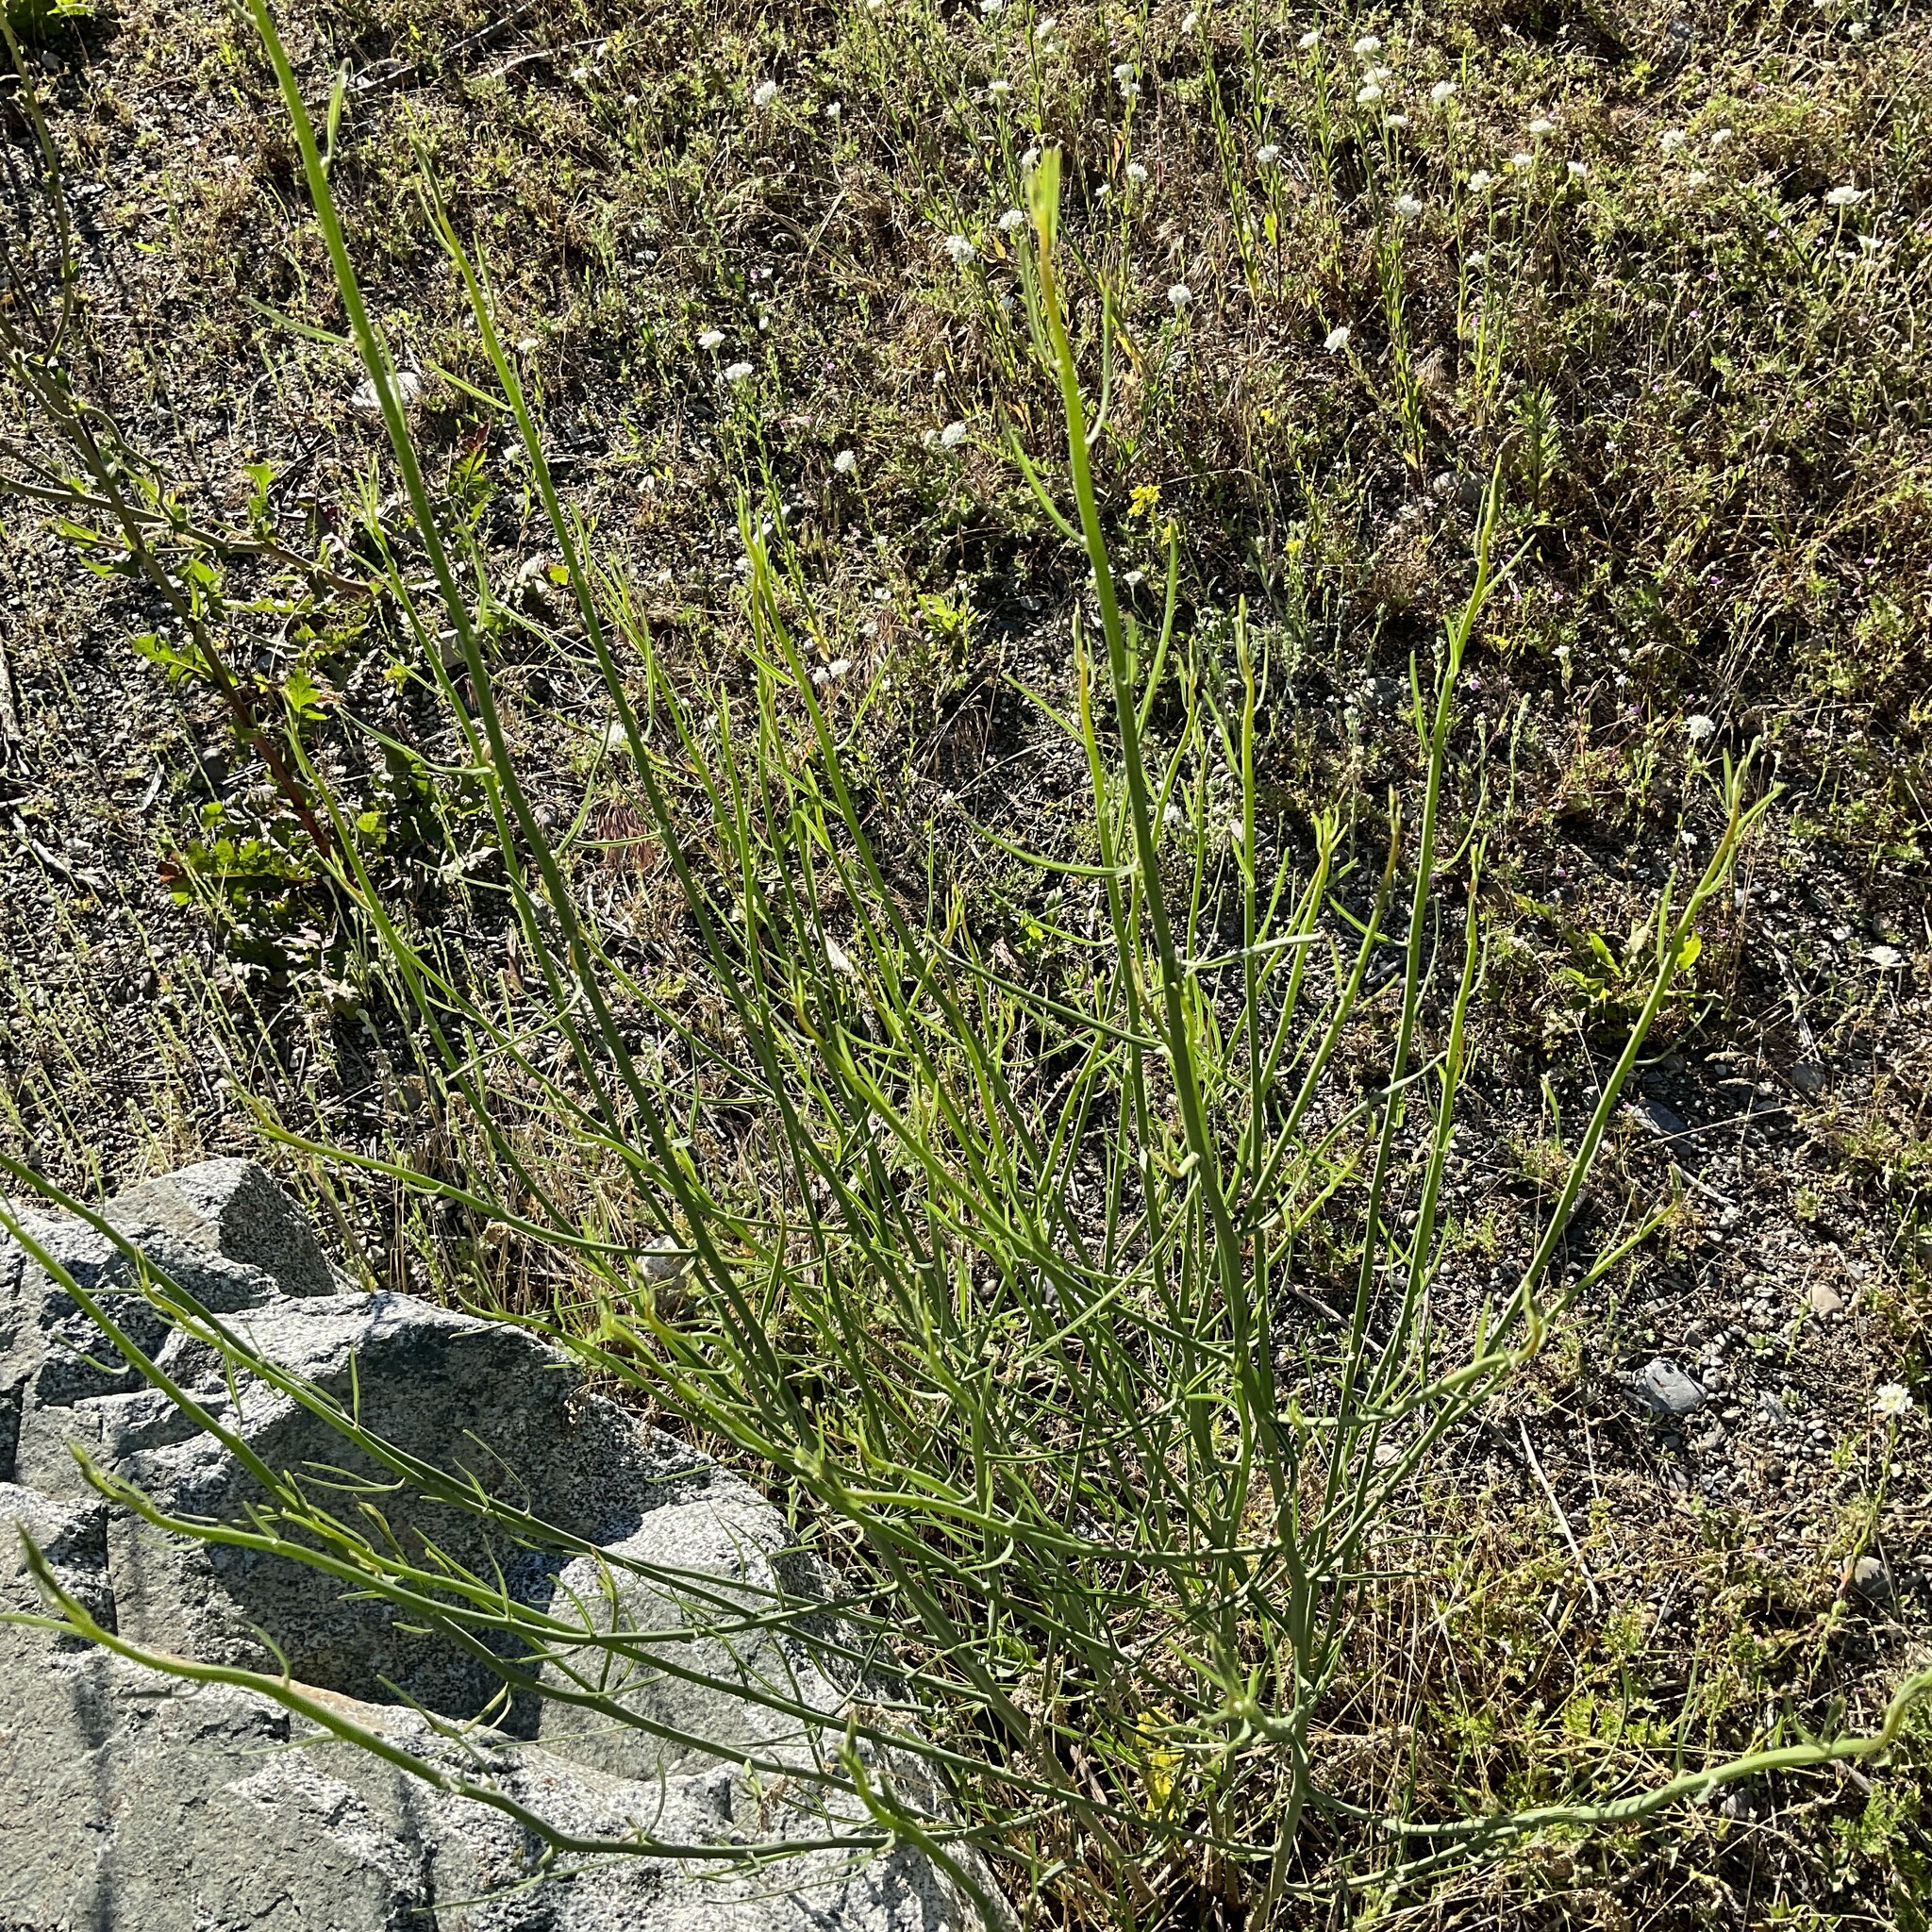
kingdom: Plantae
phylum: Tracheophyta
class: Magnoliopsida
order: Asterales
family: Asteraceae
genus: Chondrilla
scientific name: Chondrilla juncea
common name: Skeleton weed
